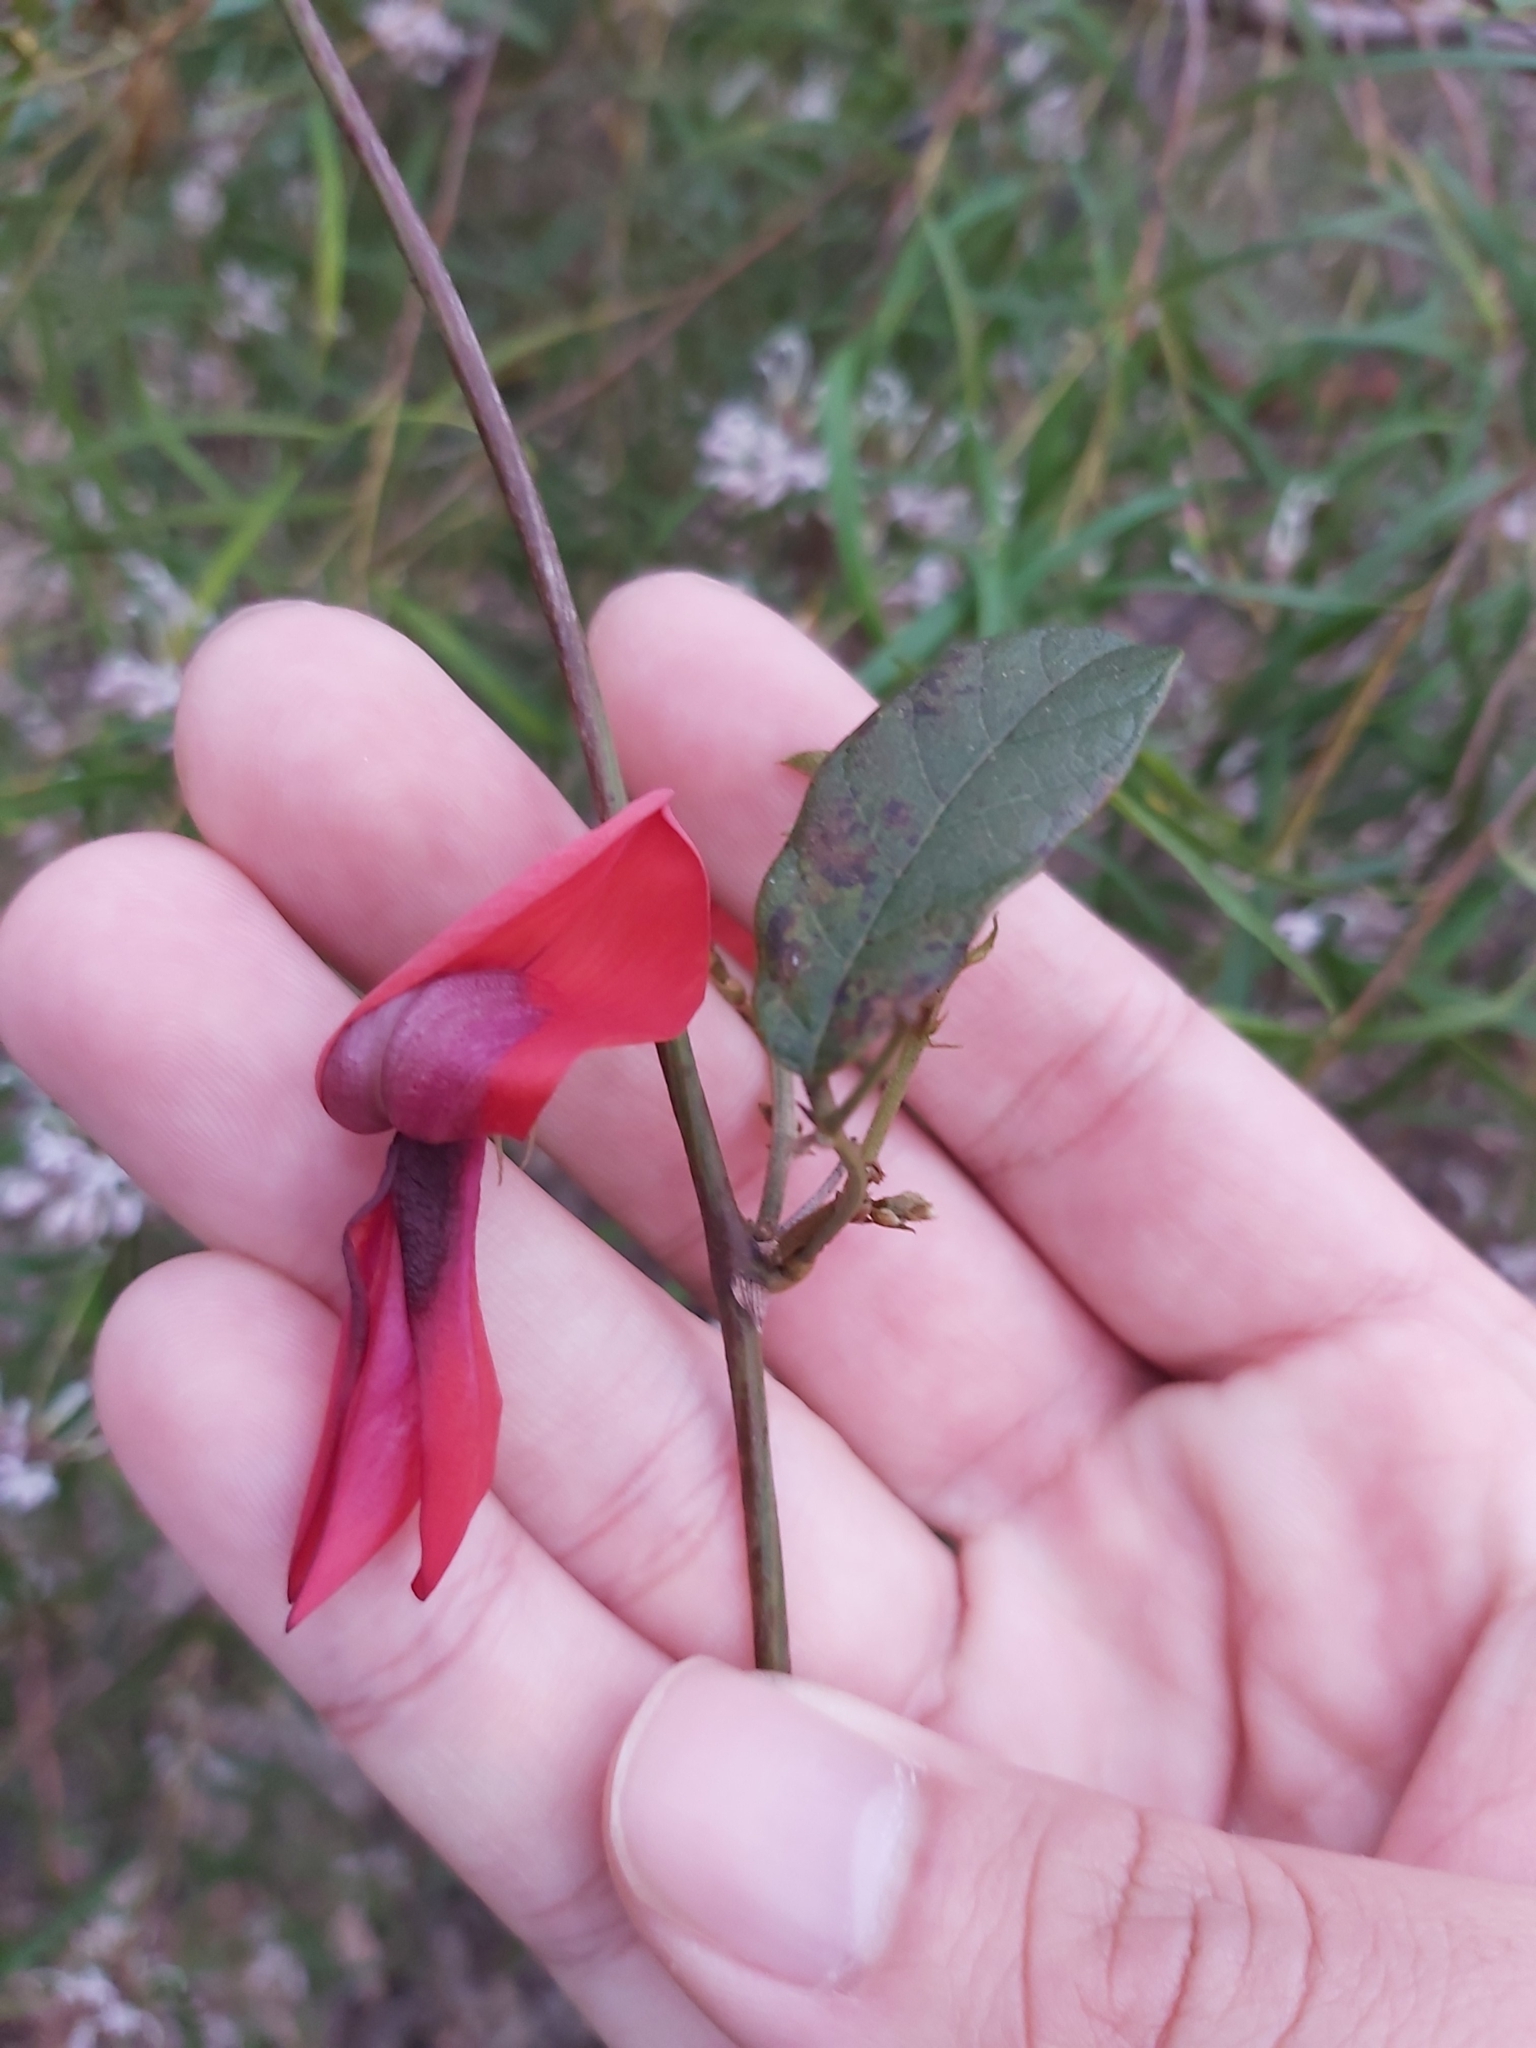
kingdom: Plantae
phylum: Tracheophyta
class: Magnoliopsida
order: Fabales
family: Fabaceae
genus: Kennedia
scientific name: Kennedia rubicunda
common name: Red kennedy-pea
